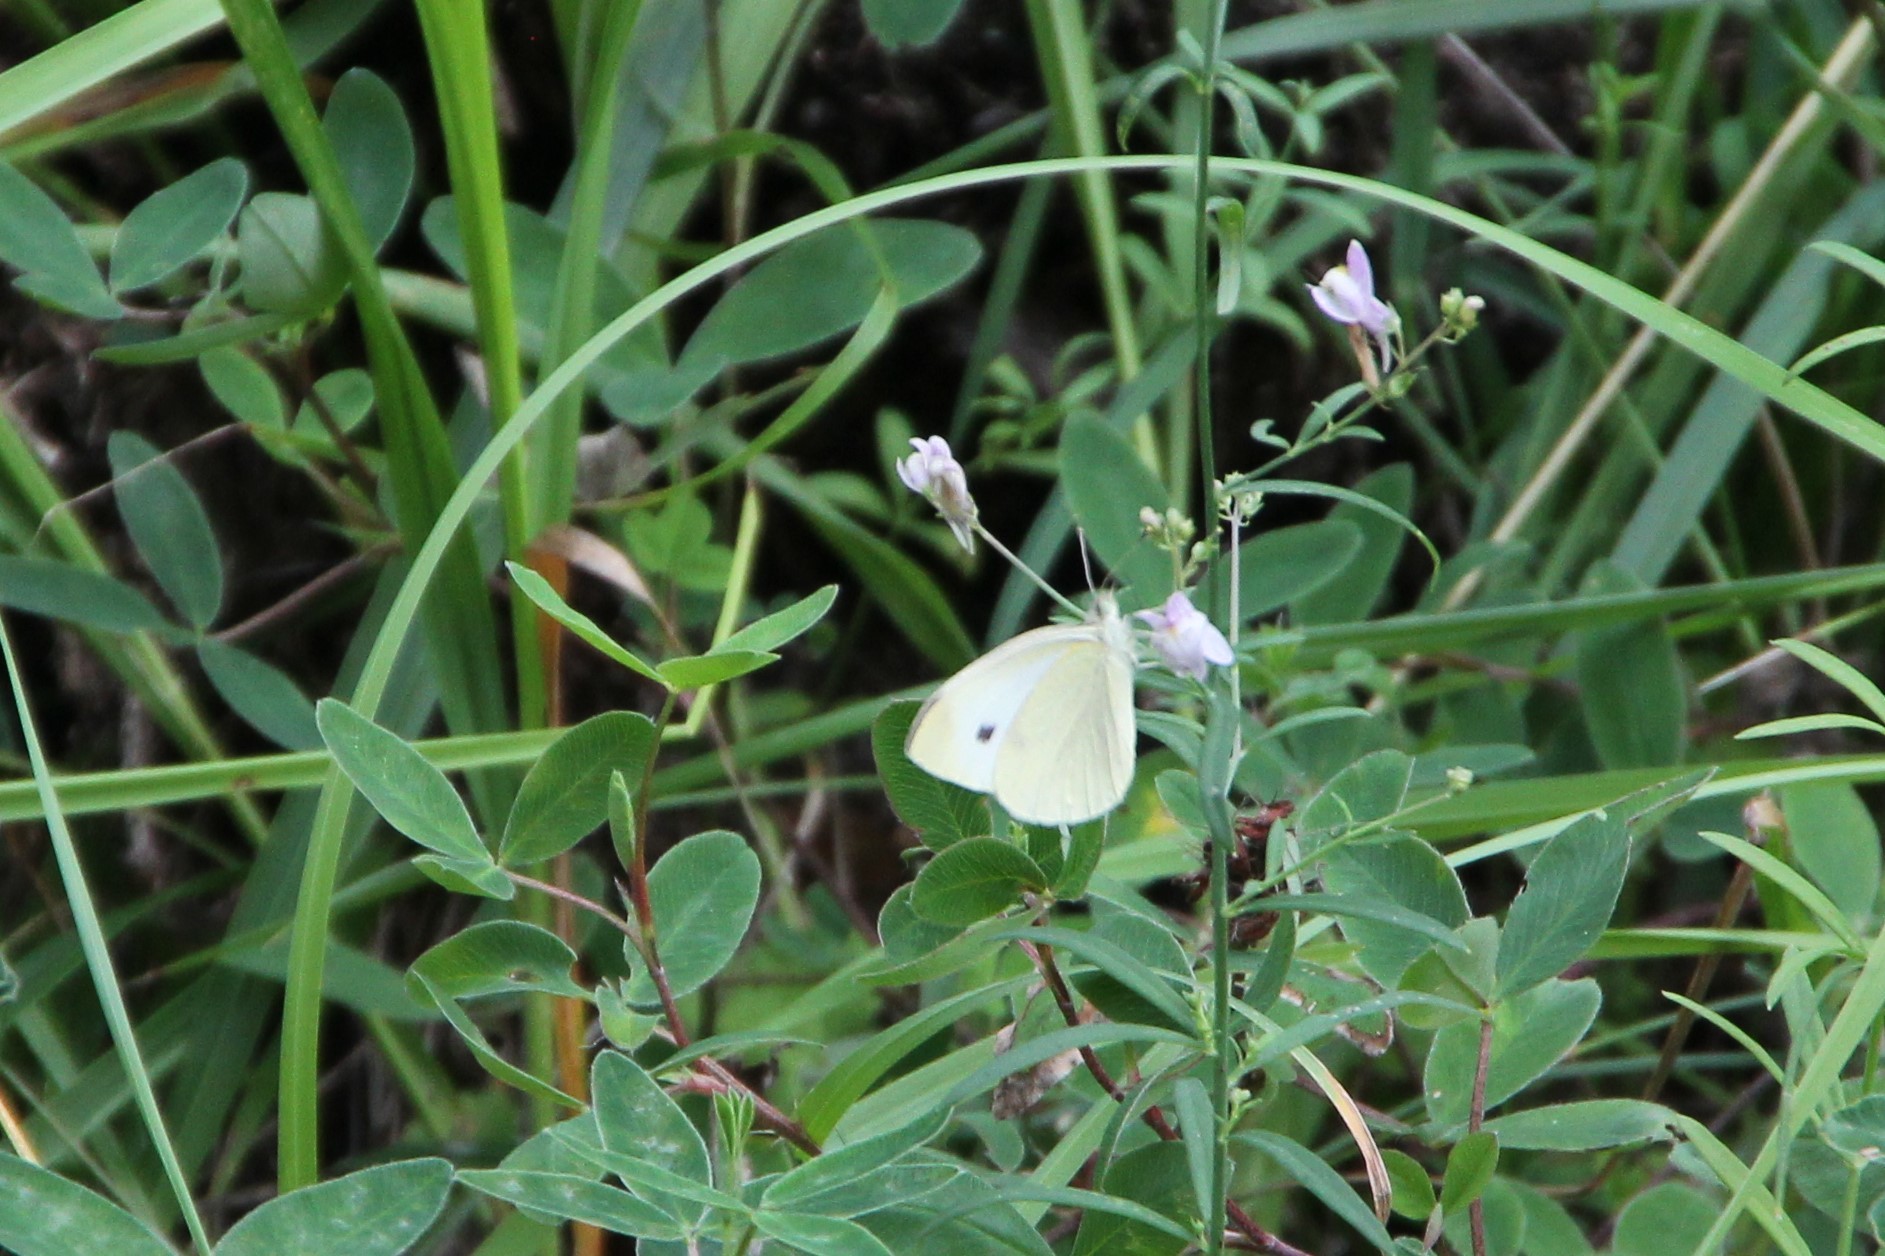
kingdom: Animalia
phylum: Arthropoda
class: Insecta
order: Lepidoptera
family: Pieridae
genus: Pieris
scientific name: Pieris rapae
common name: Small white
